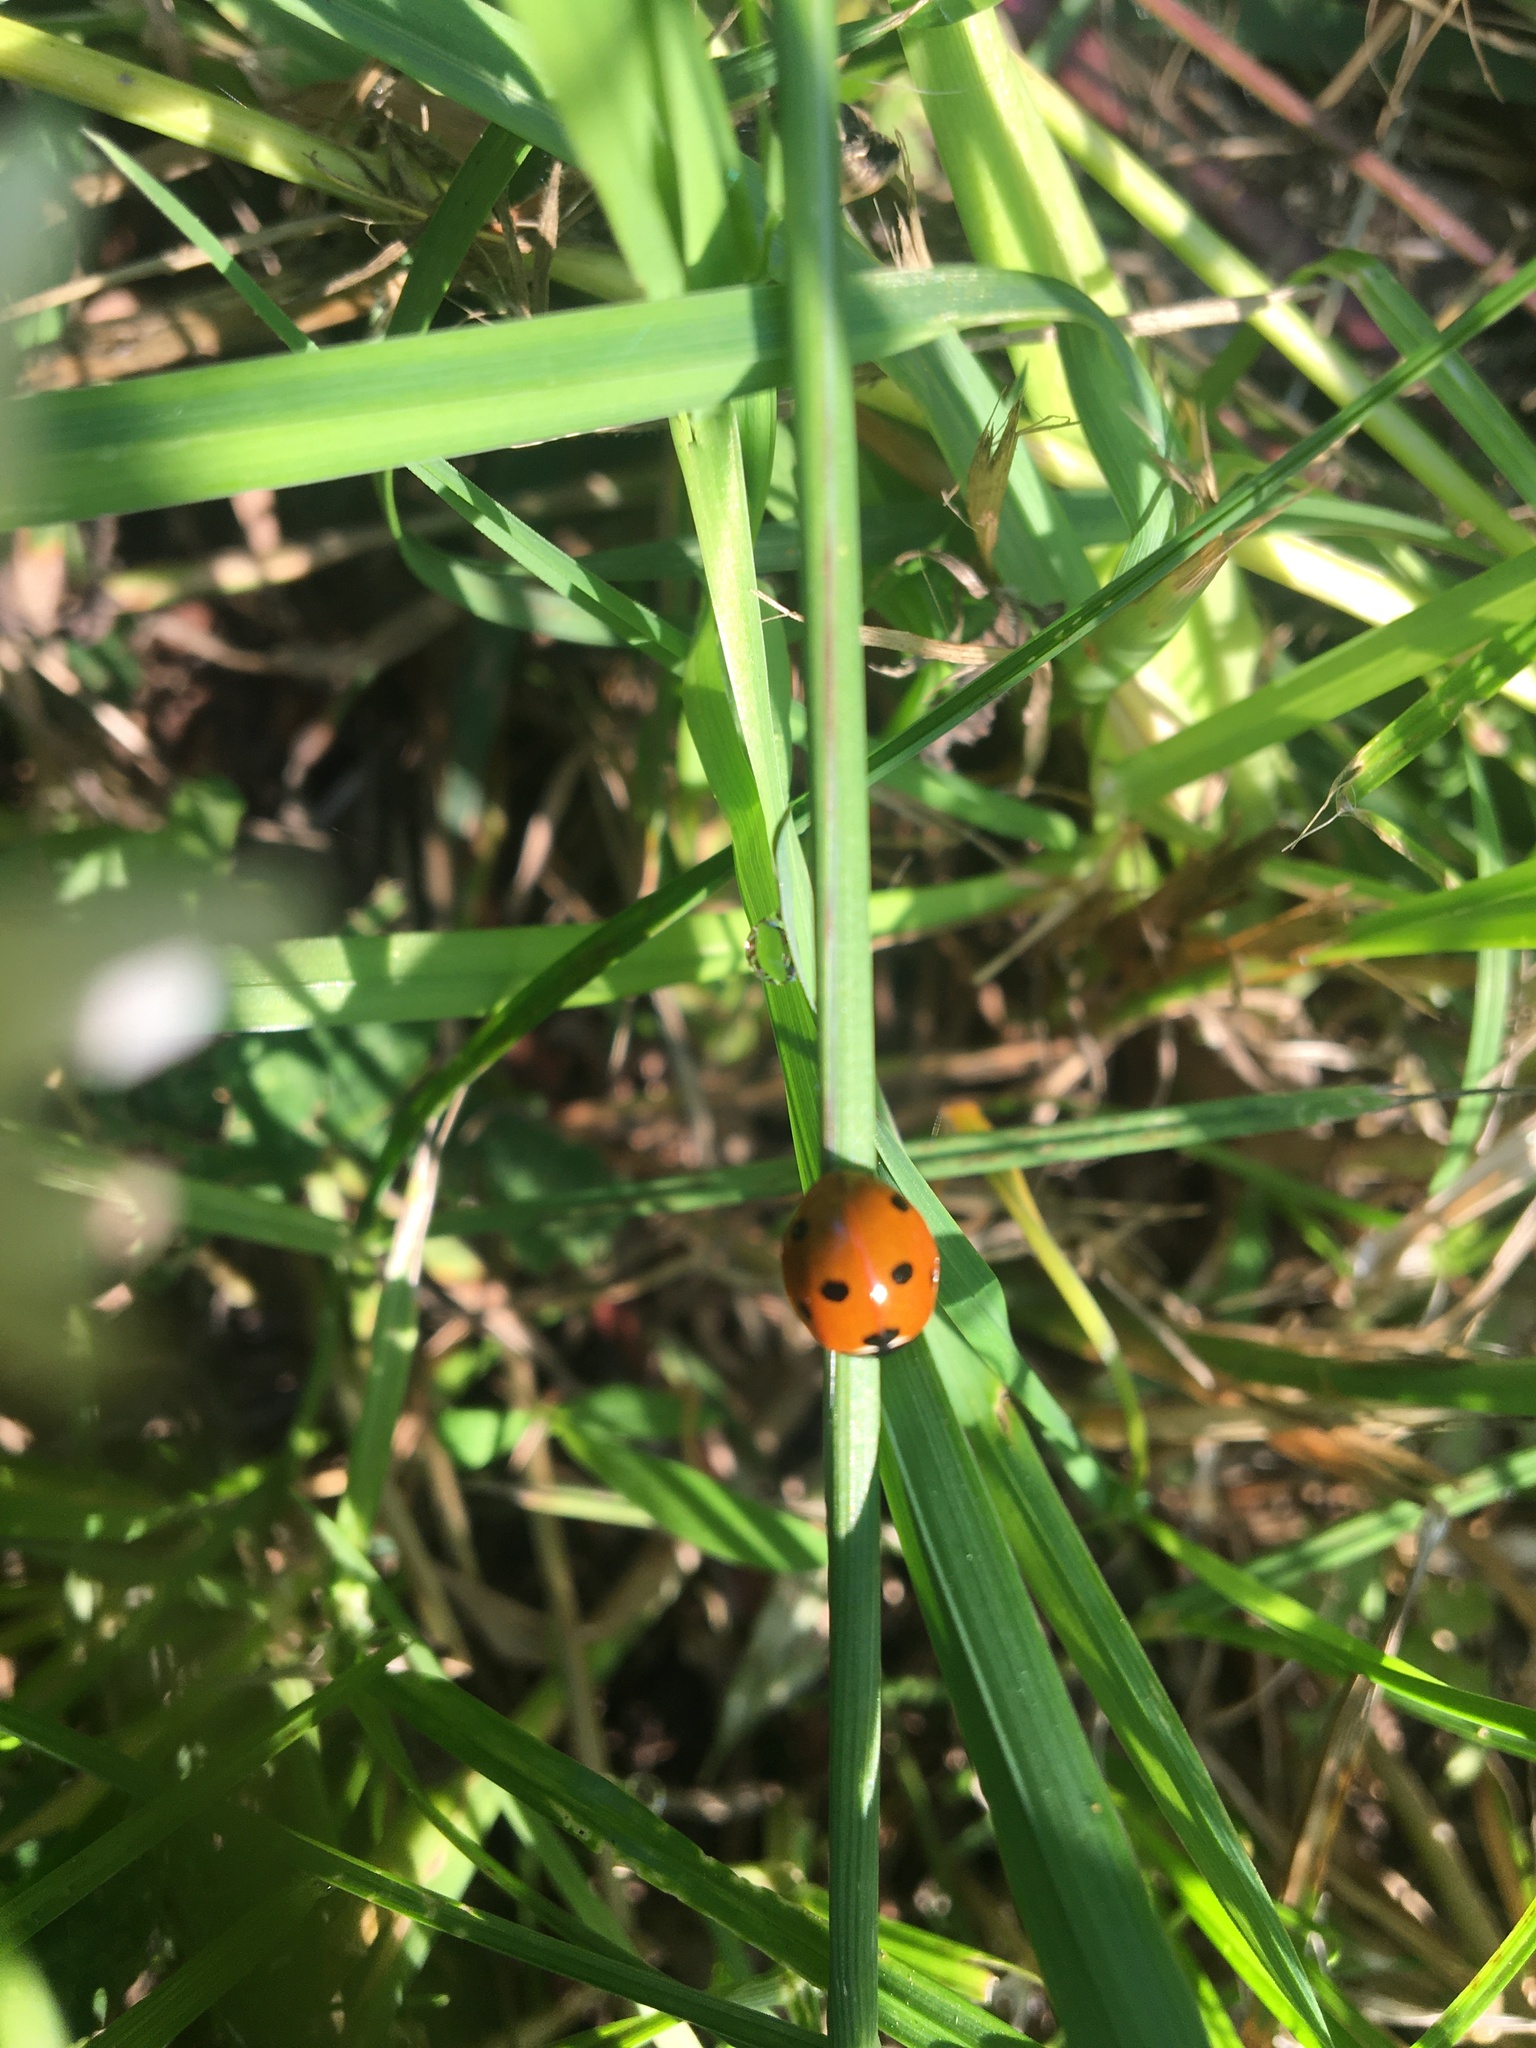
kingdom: Animalia
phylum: Arthropoda
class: Insecta
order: Coleoptera
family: Coccinellidae
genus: Coccinella
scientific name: Coccinella septempunctata
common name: Sevenspotted lady beetle
